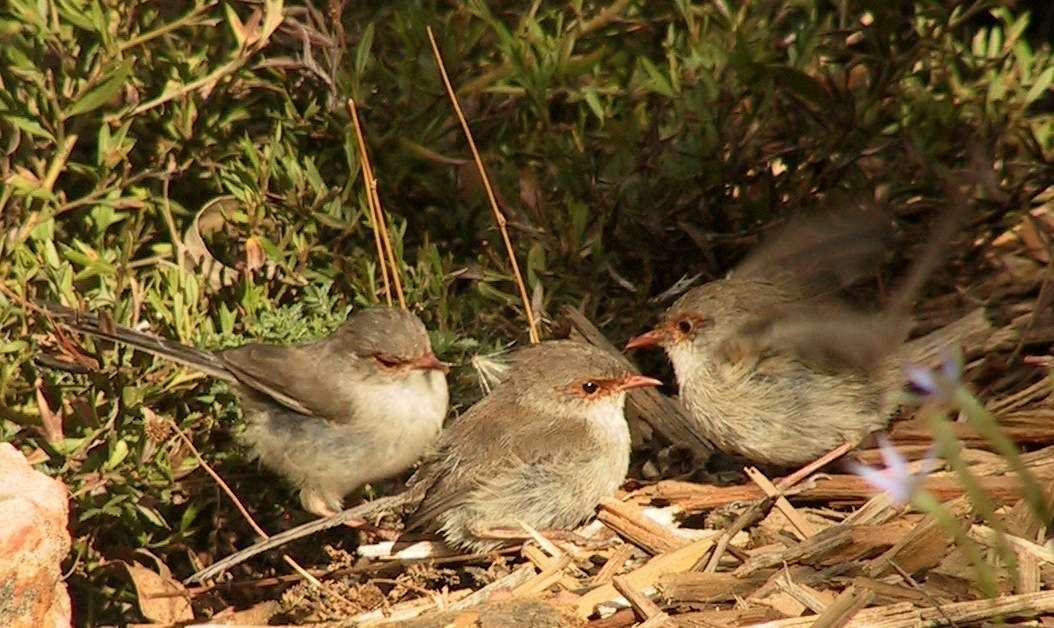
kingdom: Animalia
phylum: Chordata
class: Aves
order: Passeriformes
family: Maluridae
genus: Malurus
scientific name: Malurus cyaneus
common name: Superb fairywren
